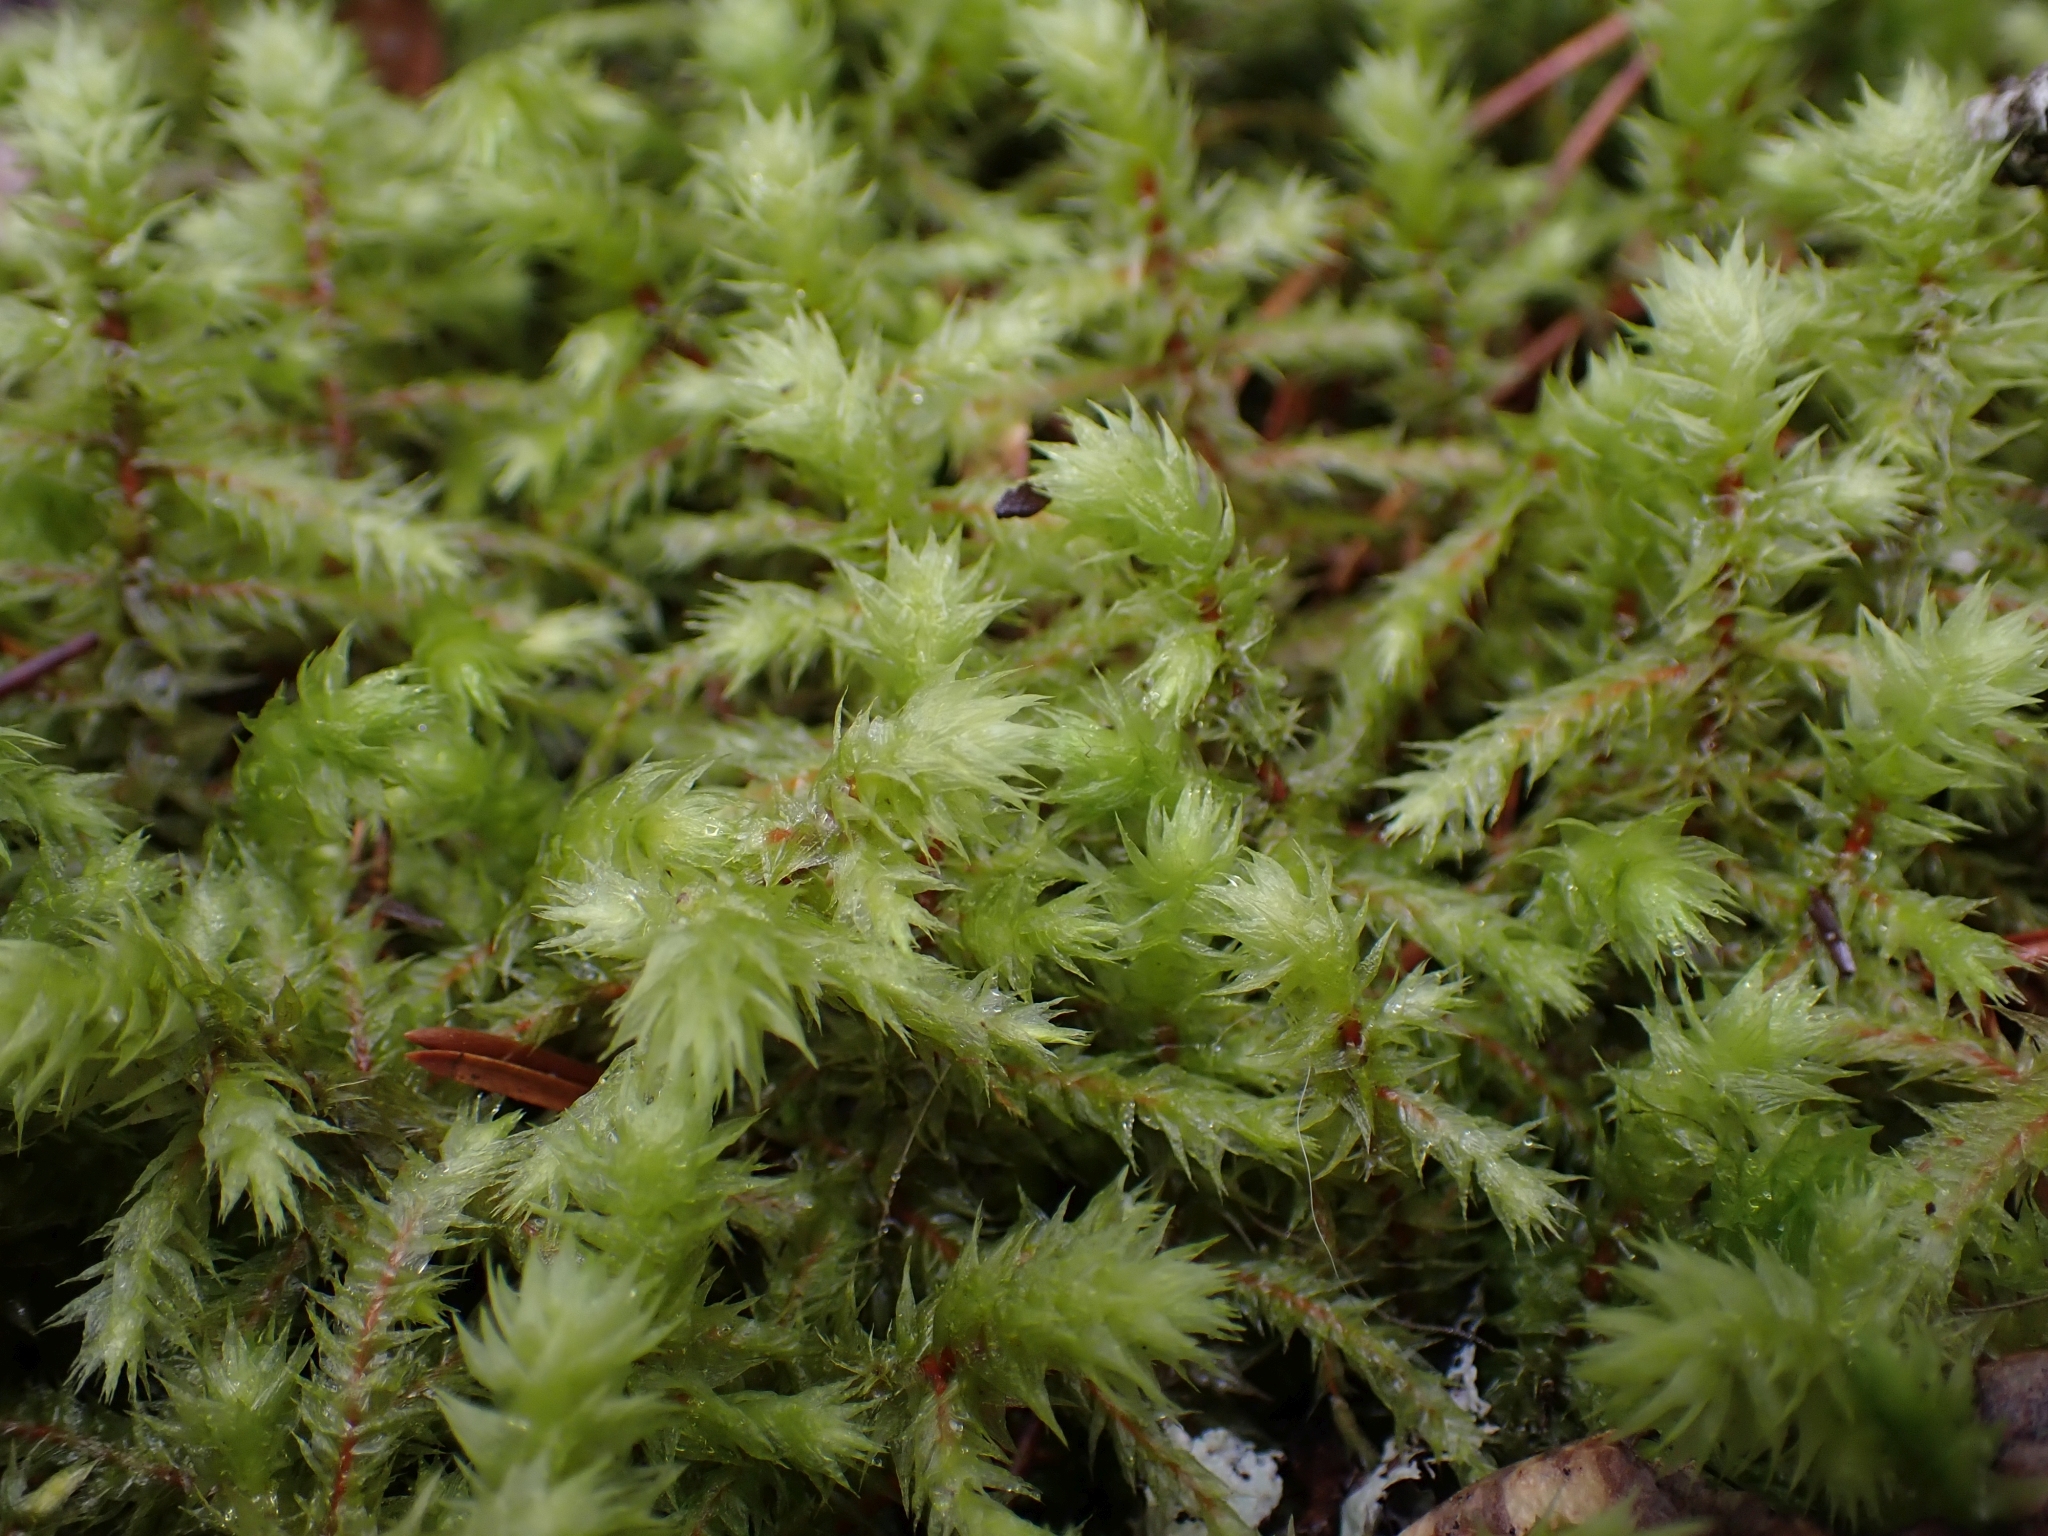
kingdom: Plantae
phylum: Bryophyta
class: Bryopsida
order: Hypnales
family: Hylocomiaceae
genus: Hylocomiadelphus
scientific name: Hylocomiadelphus triquetrus
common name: Rough goose neck moss
